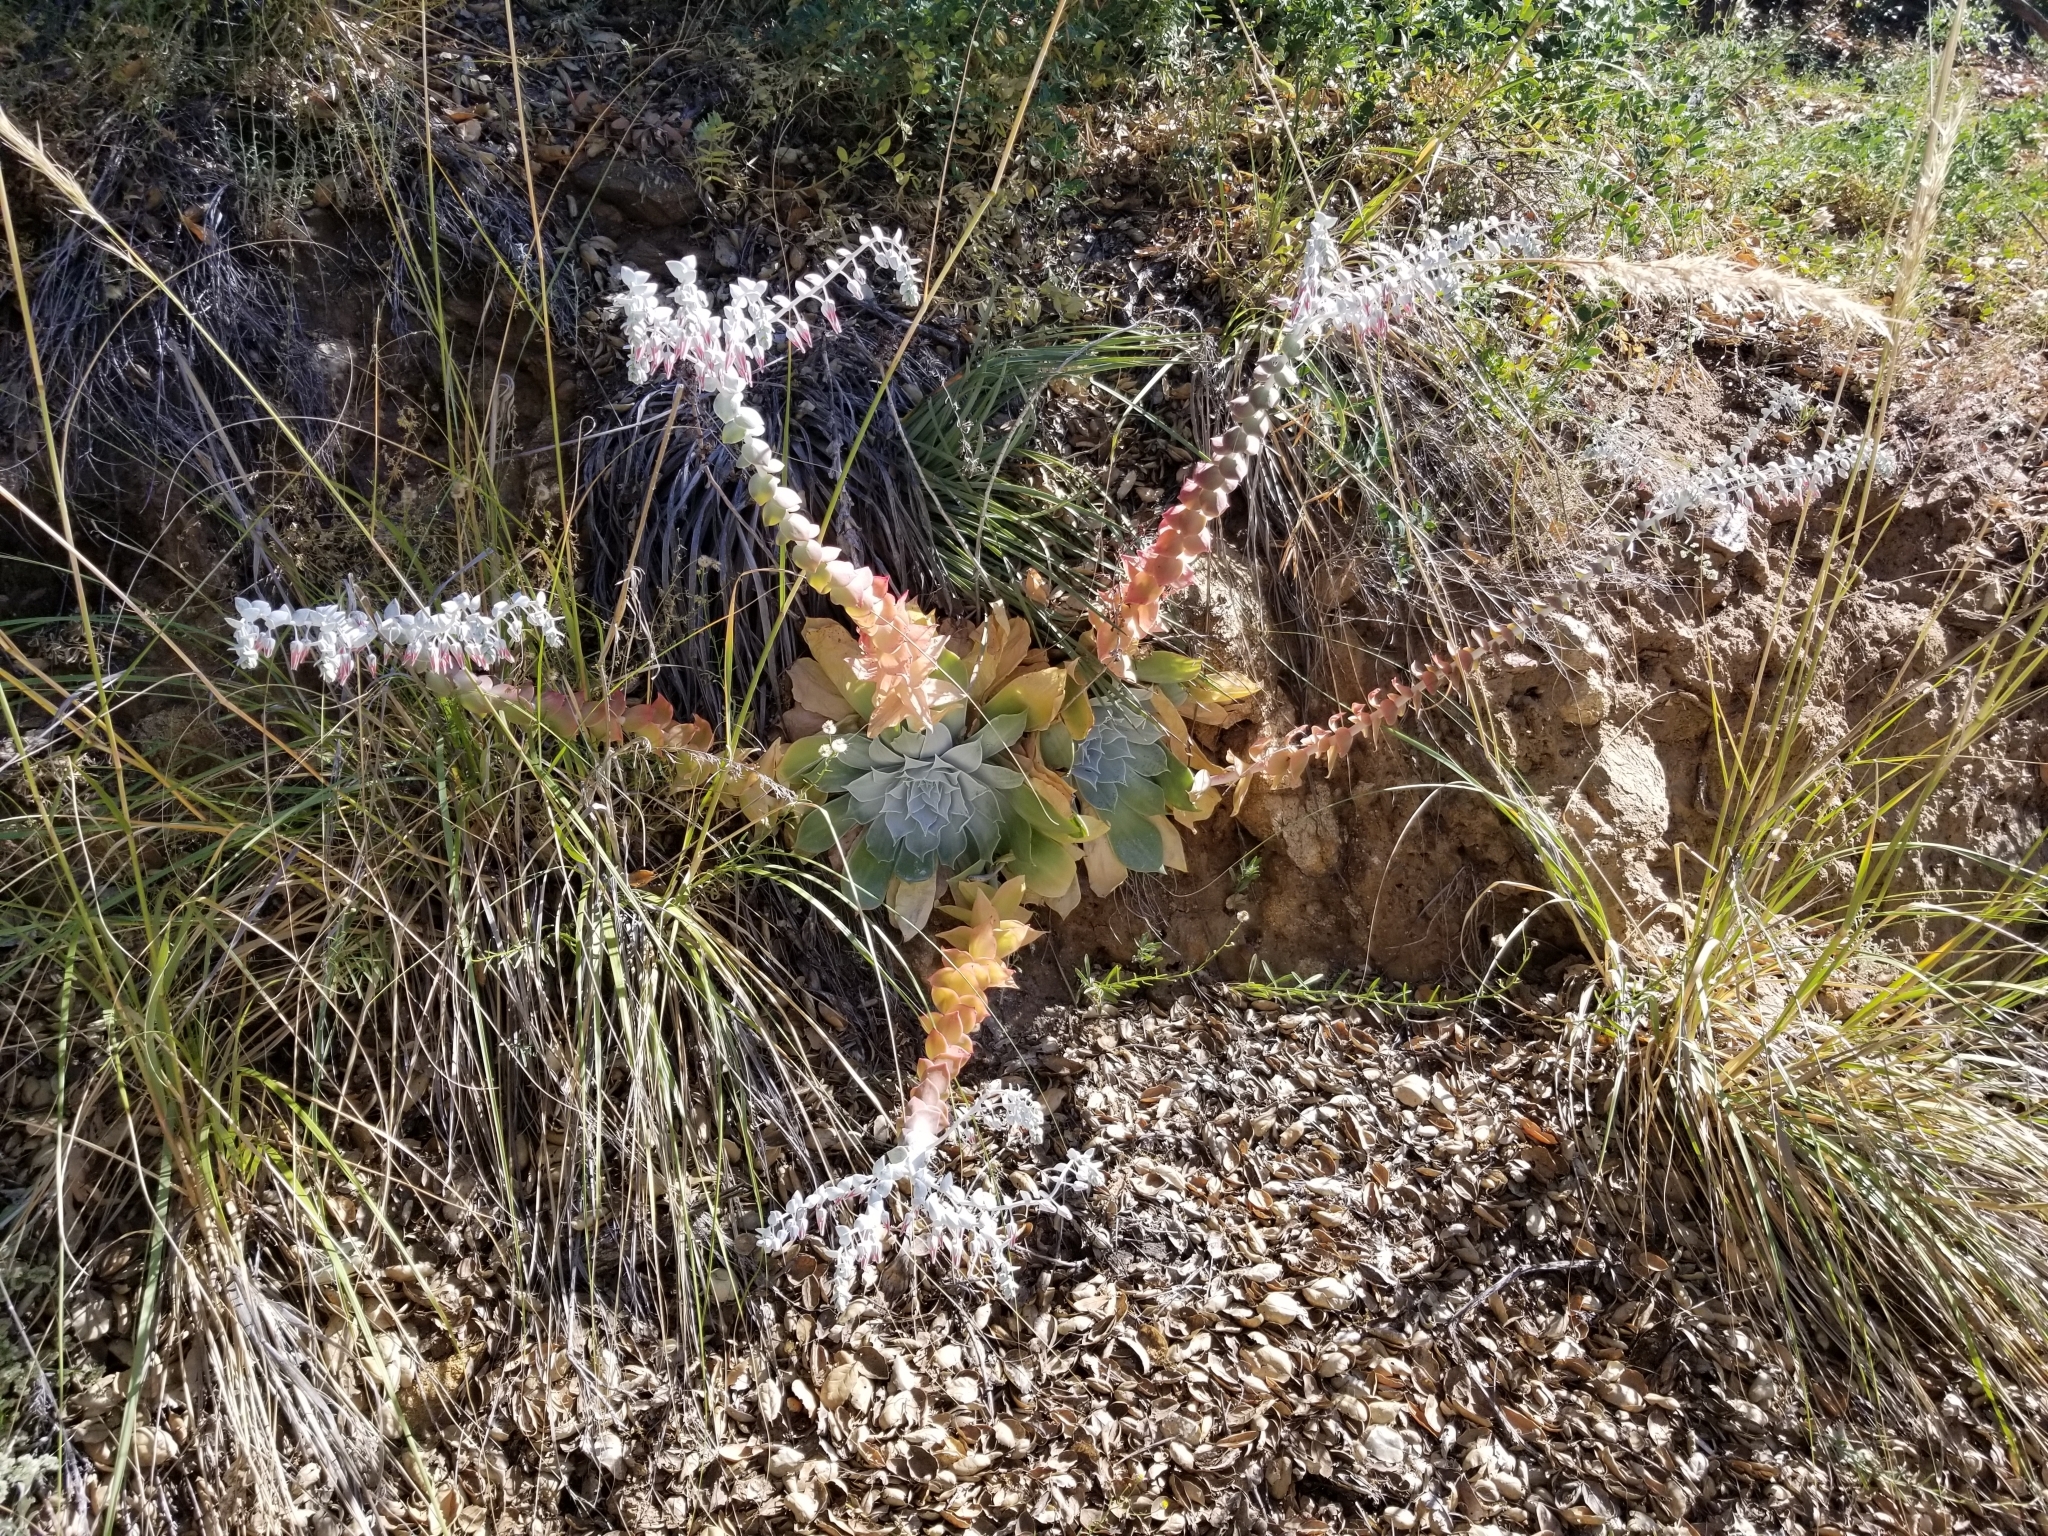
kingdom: Plantae
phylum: Tracheophyta
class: Magnoliopsida
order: Saxifragales
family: Crassulaceae
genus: Dudleya
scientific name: Dudleya pulverulenta
